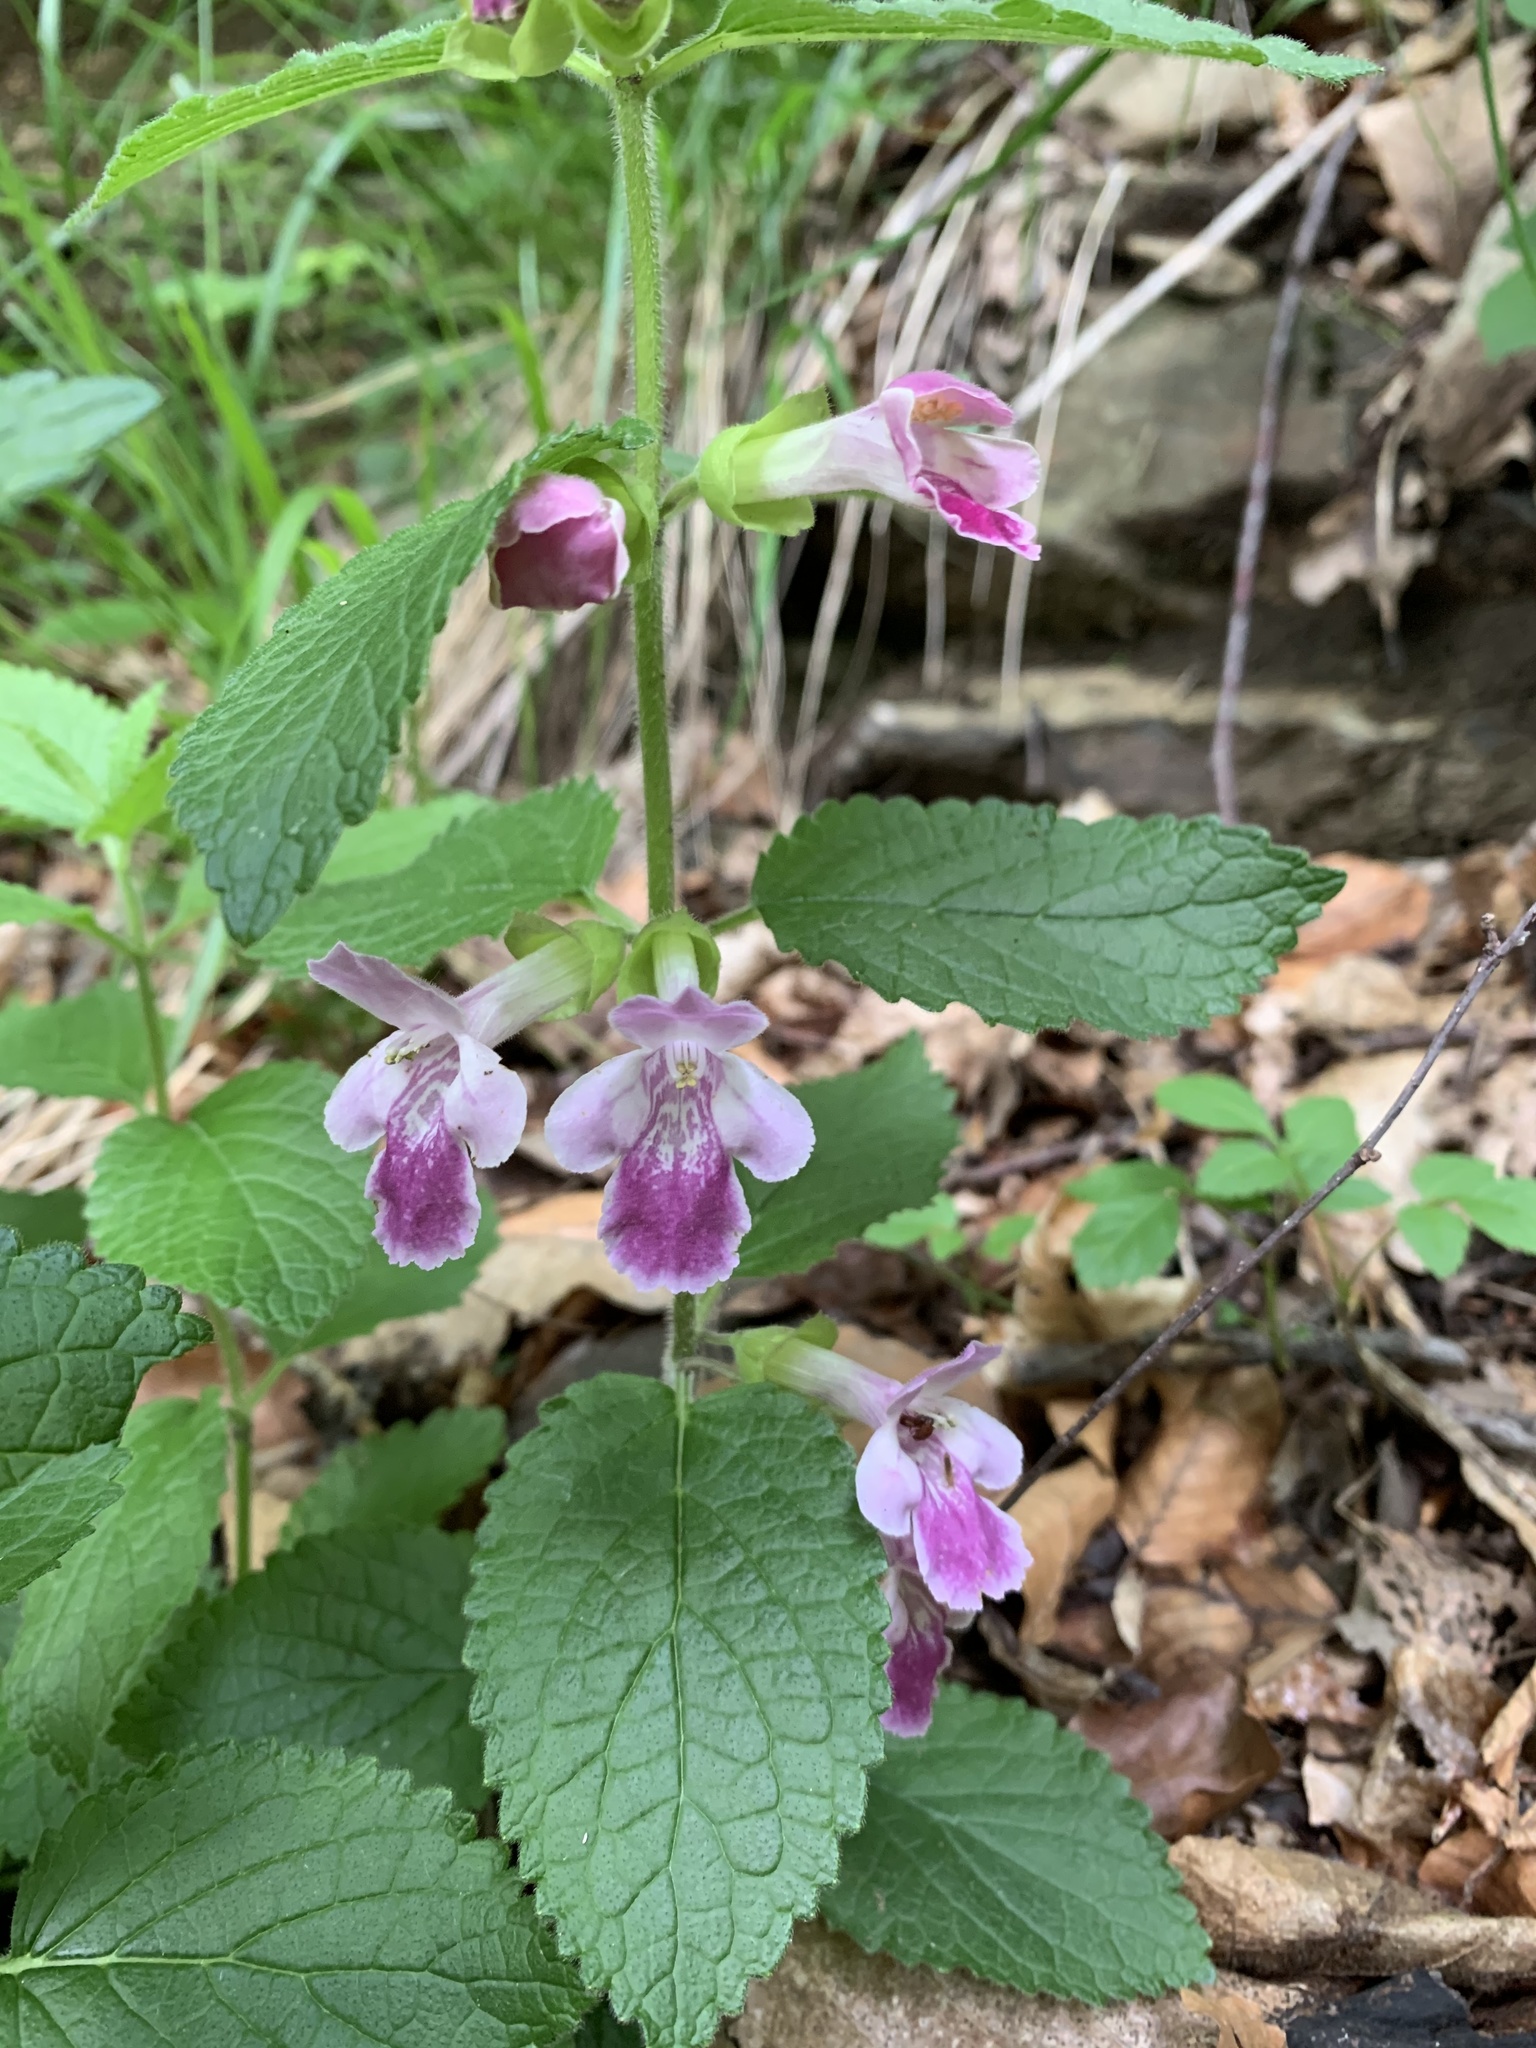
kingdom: Plantae
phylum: Tracheophyta
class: Magnoliopsida
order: Lamiales
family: Lamiaceae
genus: Melittis
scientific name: Melittis melissophyllum
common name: Bastard balm
